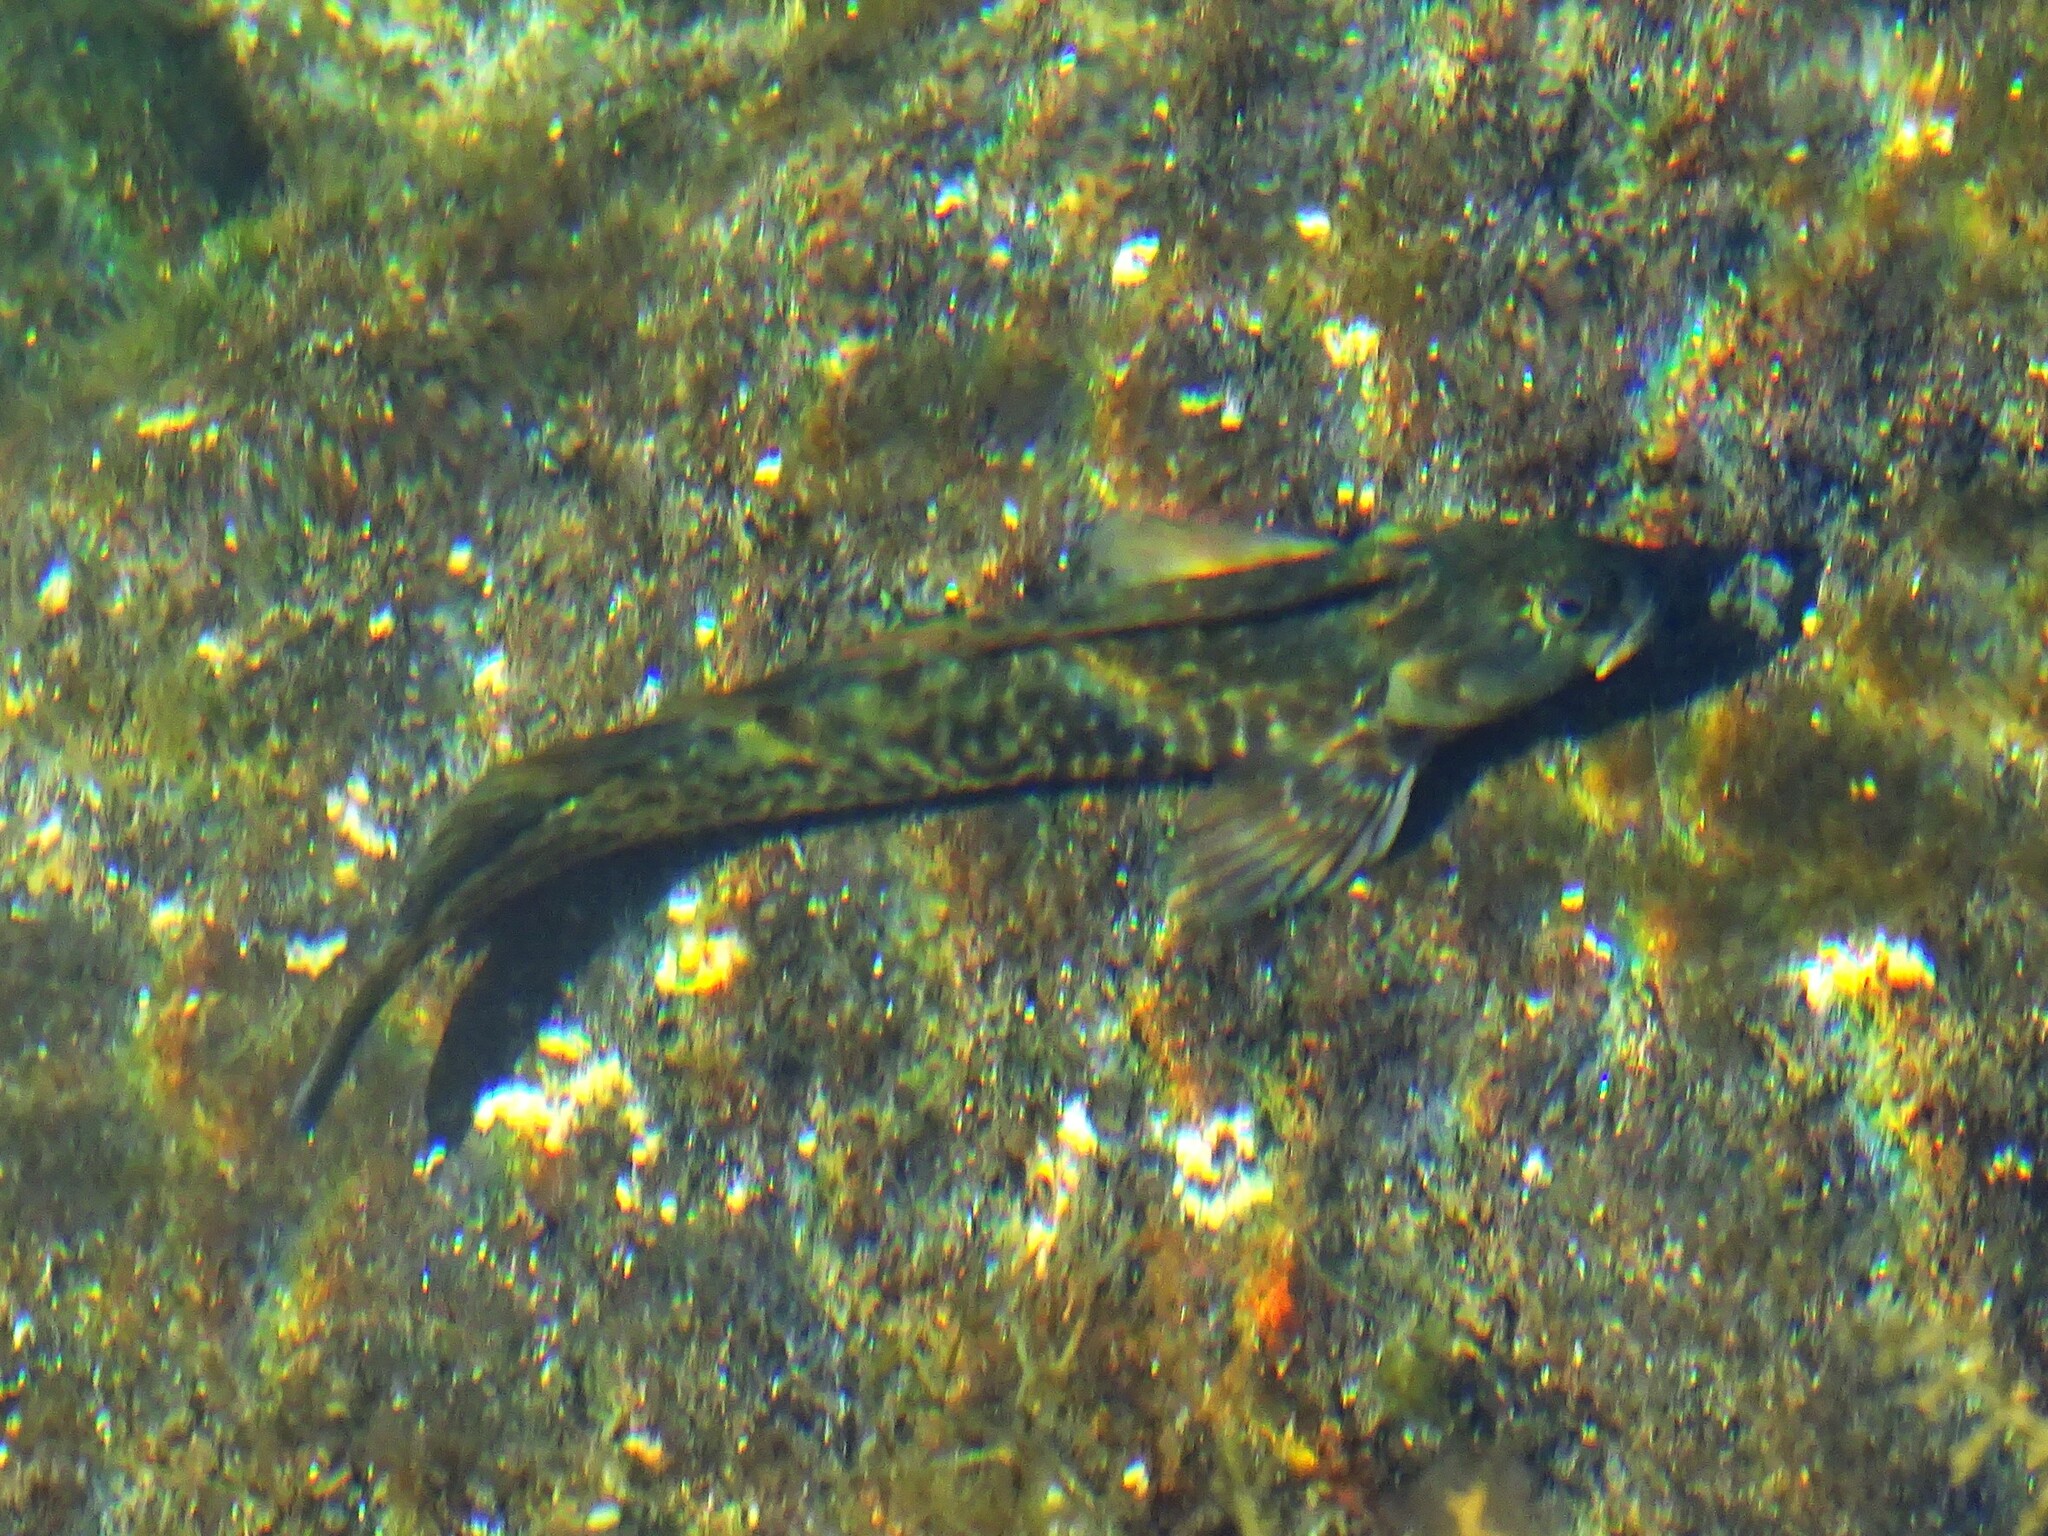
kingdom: Animalia
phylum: Chordata
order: Perciformes
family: Blenniidae
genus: Parablennius
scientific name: Parablennius parvicornis
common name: Rock-pool blenny
